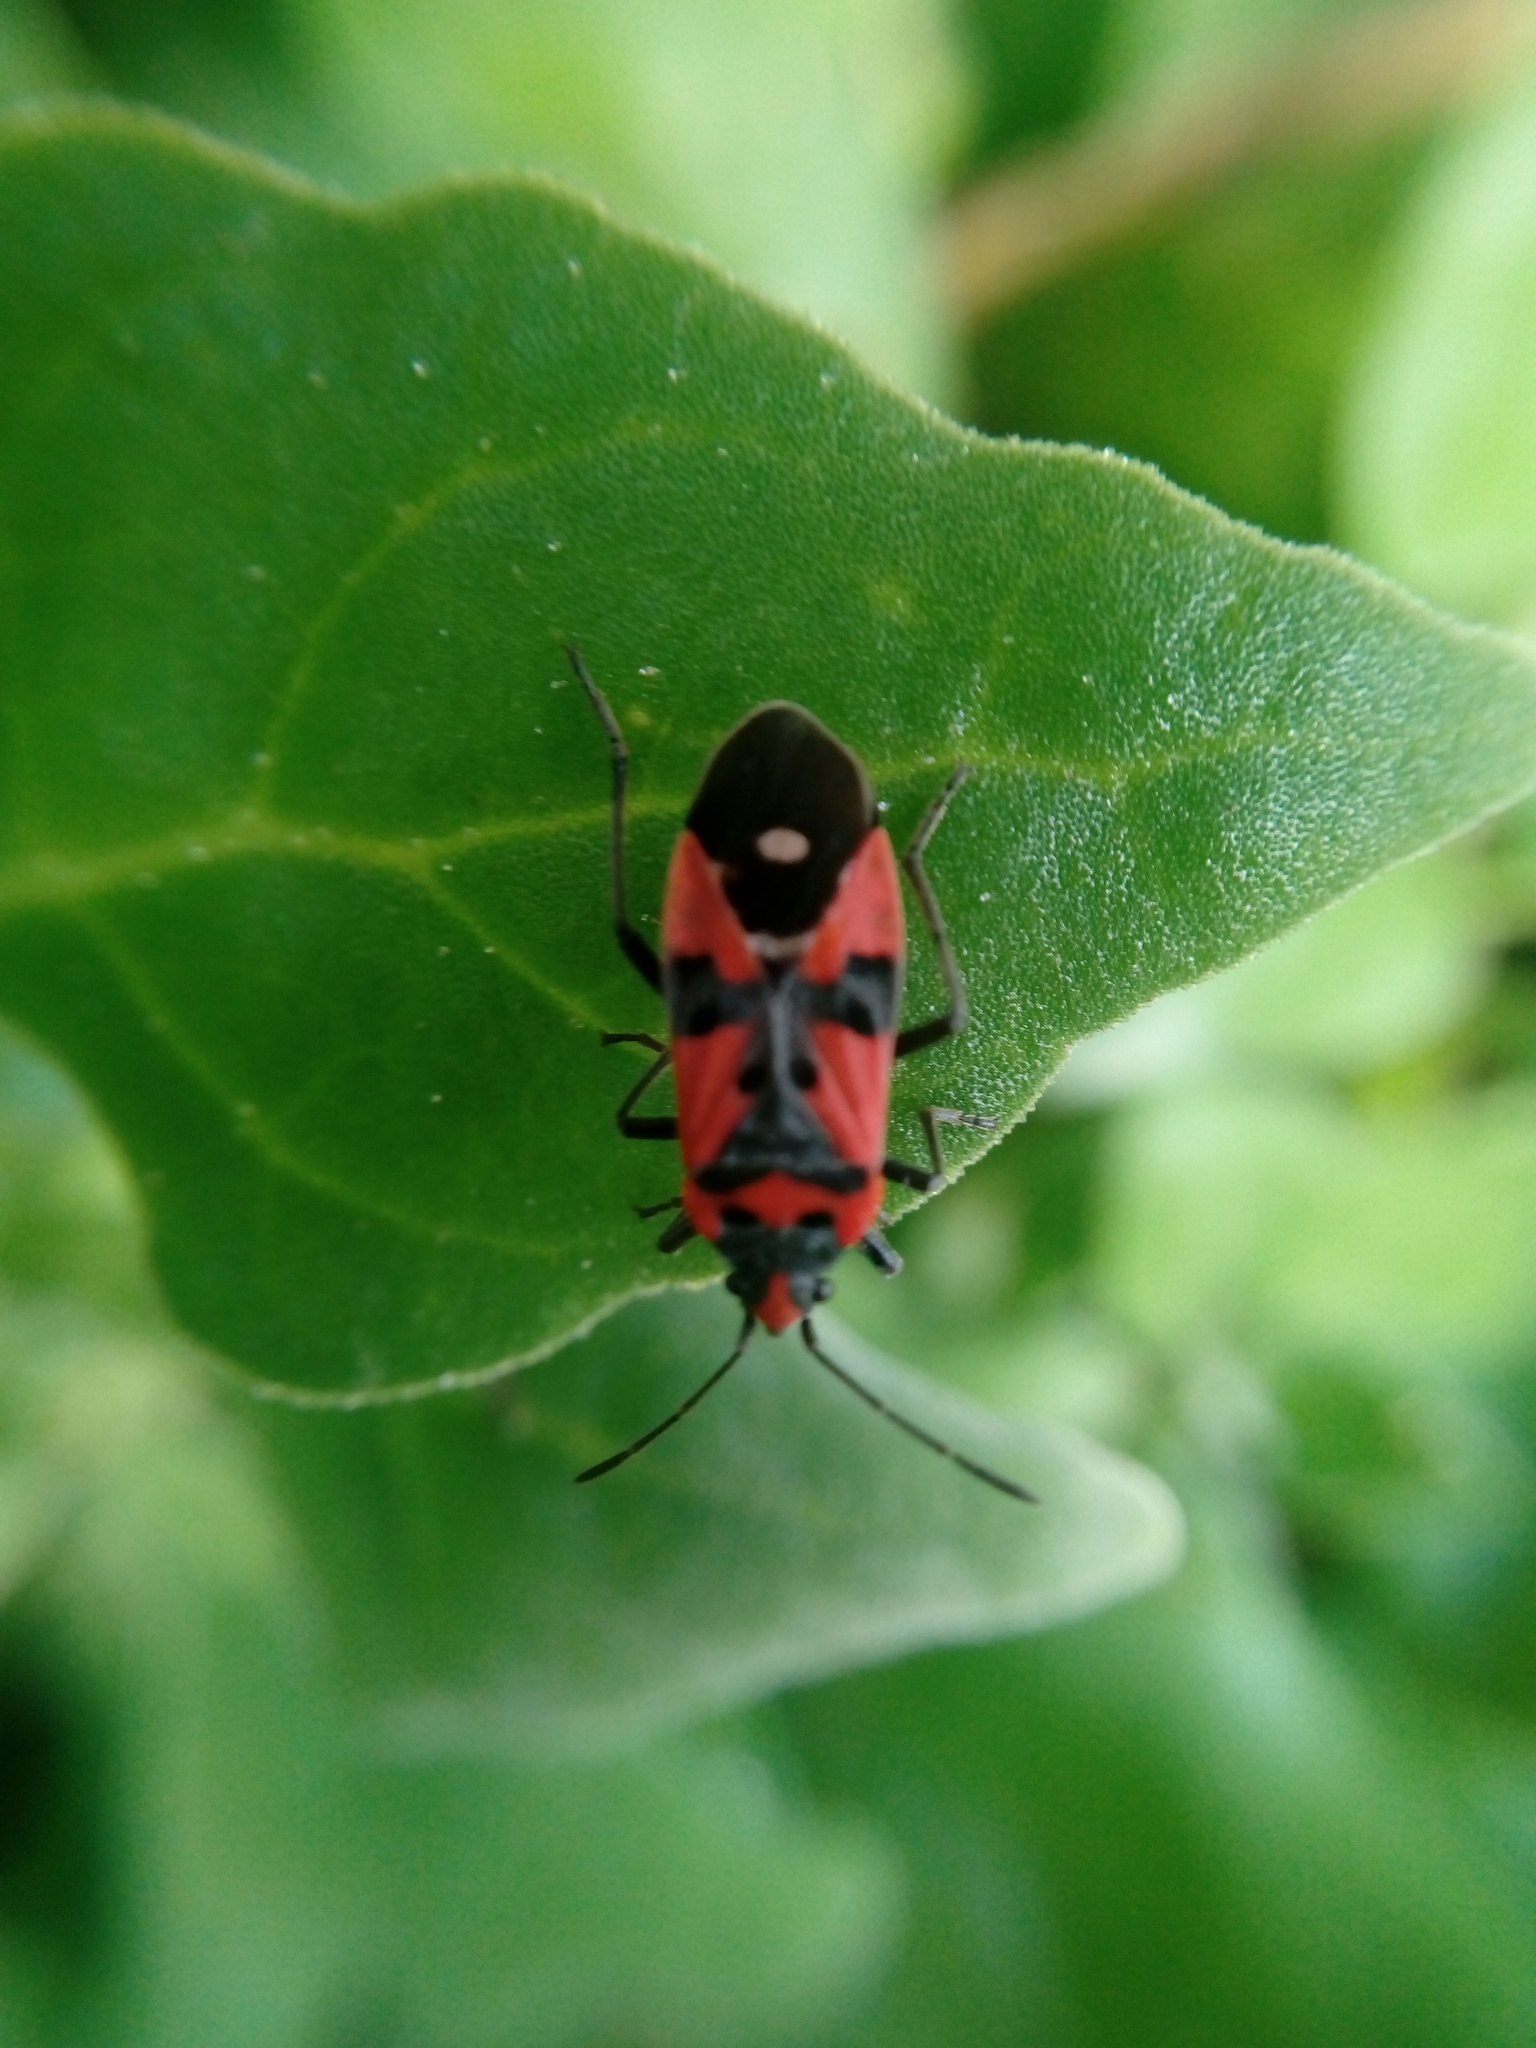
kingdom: Animalia
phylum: Arthropoda
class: Insecta
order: Hemiptera
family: Lygaeidae
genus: Lygaeus
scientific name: Lygaeus equestris
